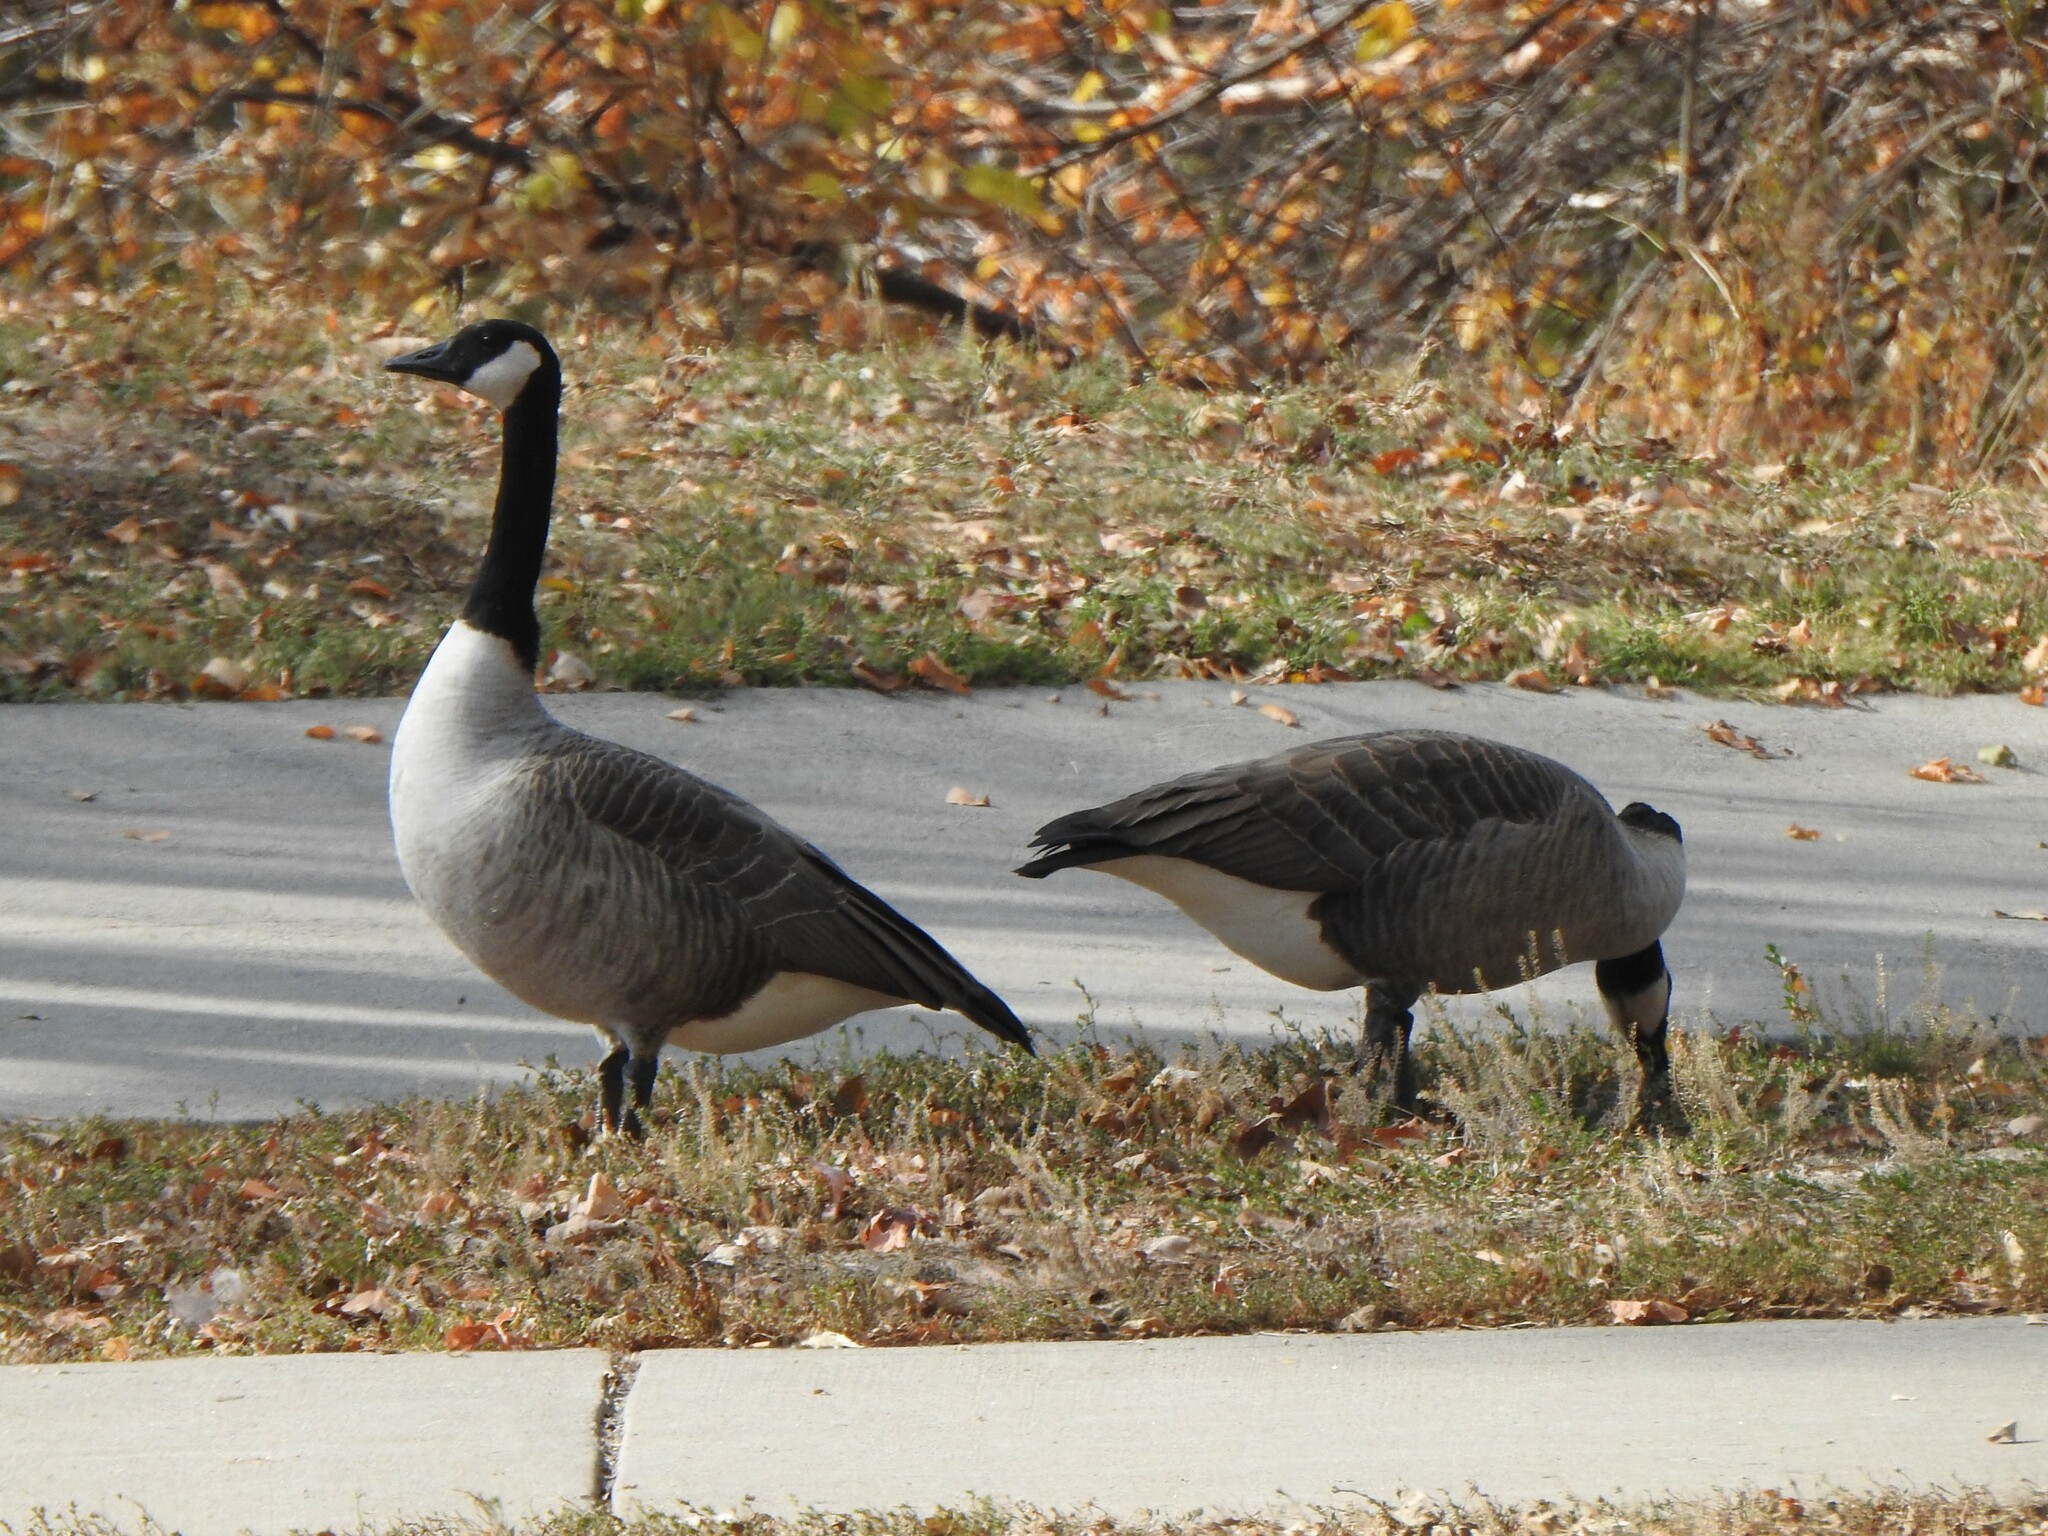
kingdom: Animalia
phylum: Chordata
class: Aves
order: Anseriformes
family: Anatidae
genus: Branta
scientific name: Branta canadensis
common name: Canada goose
